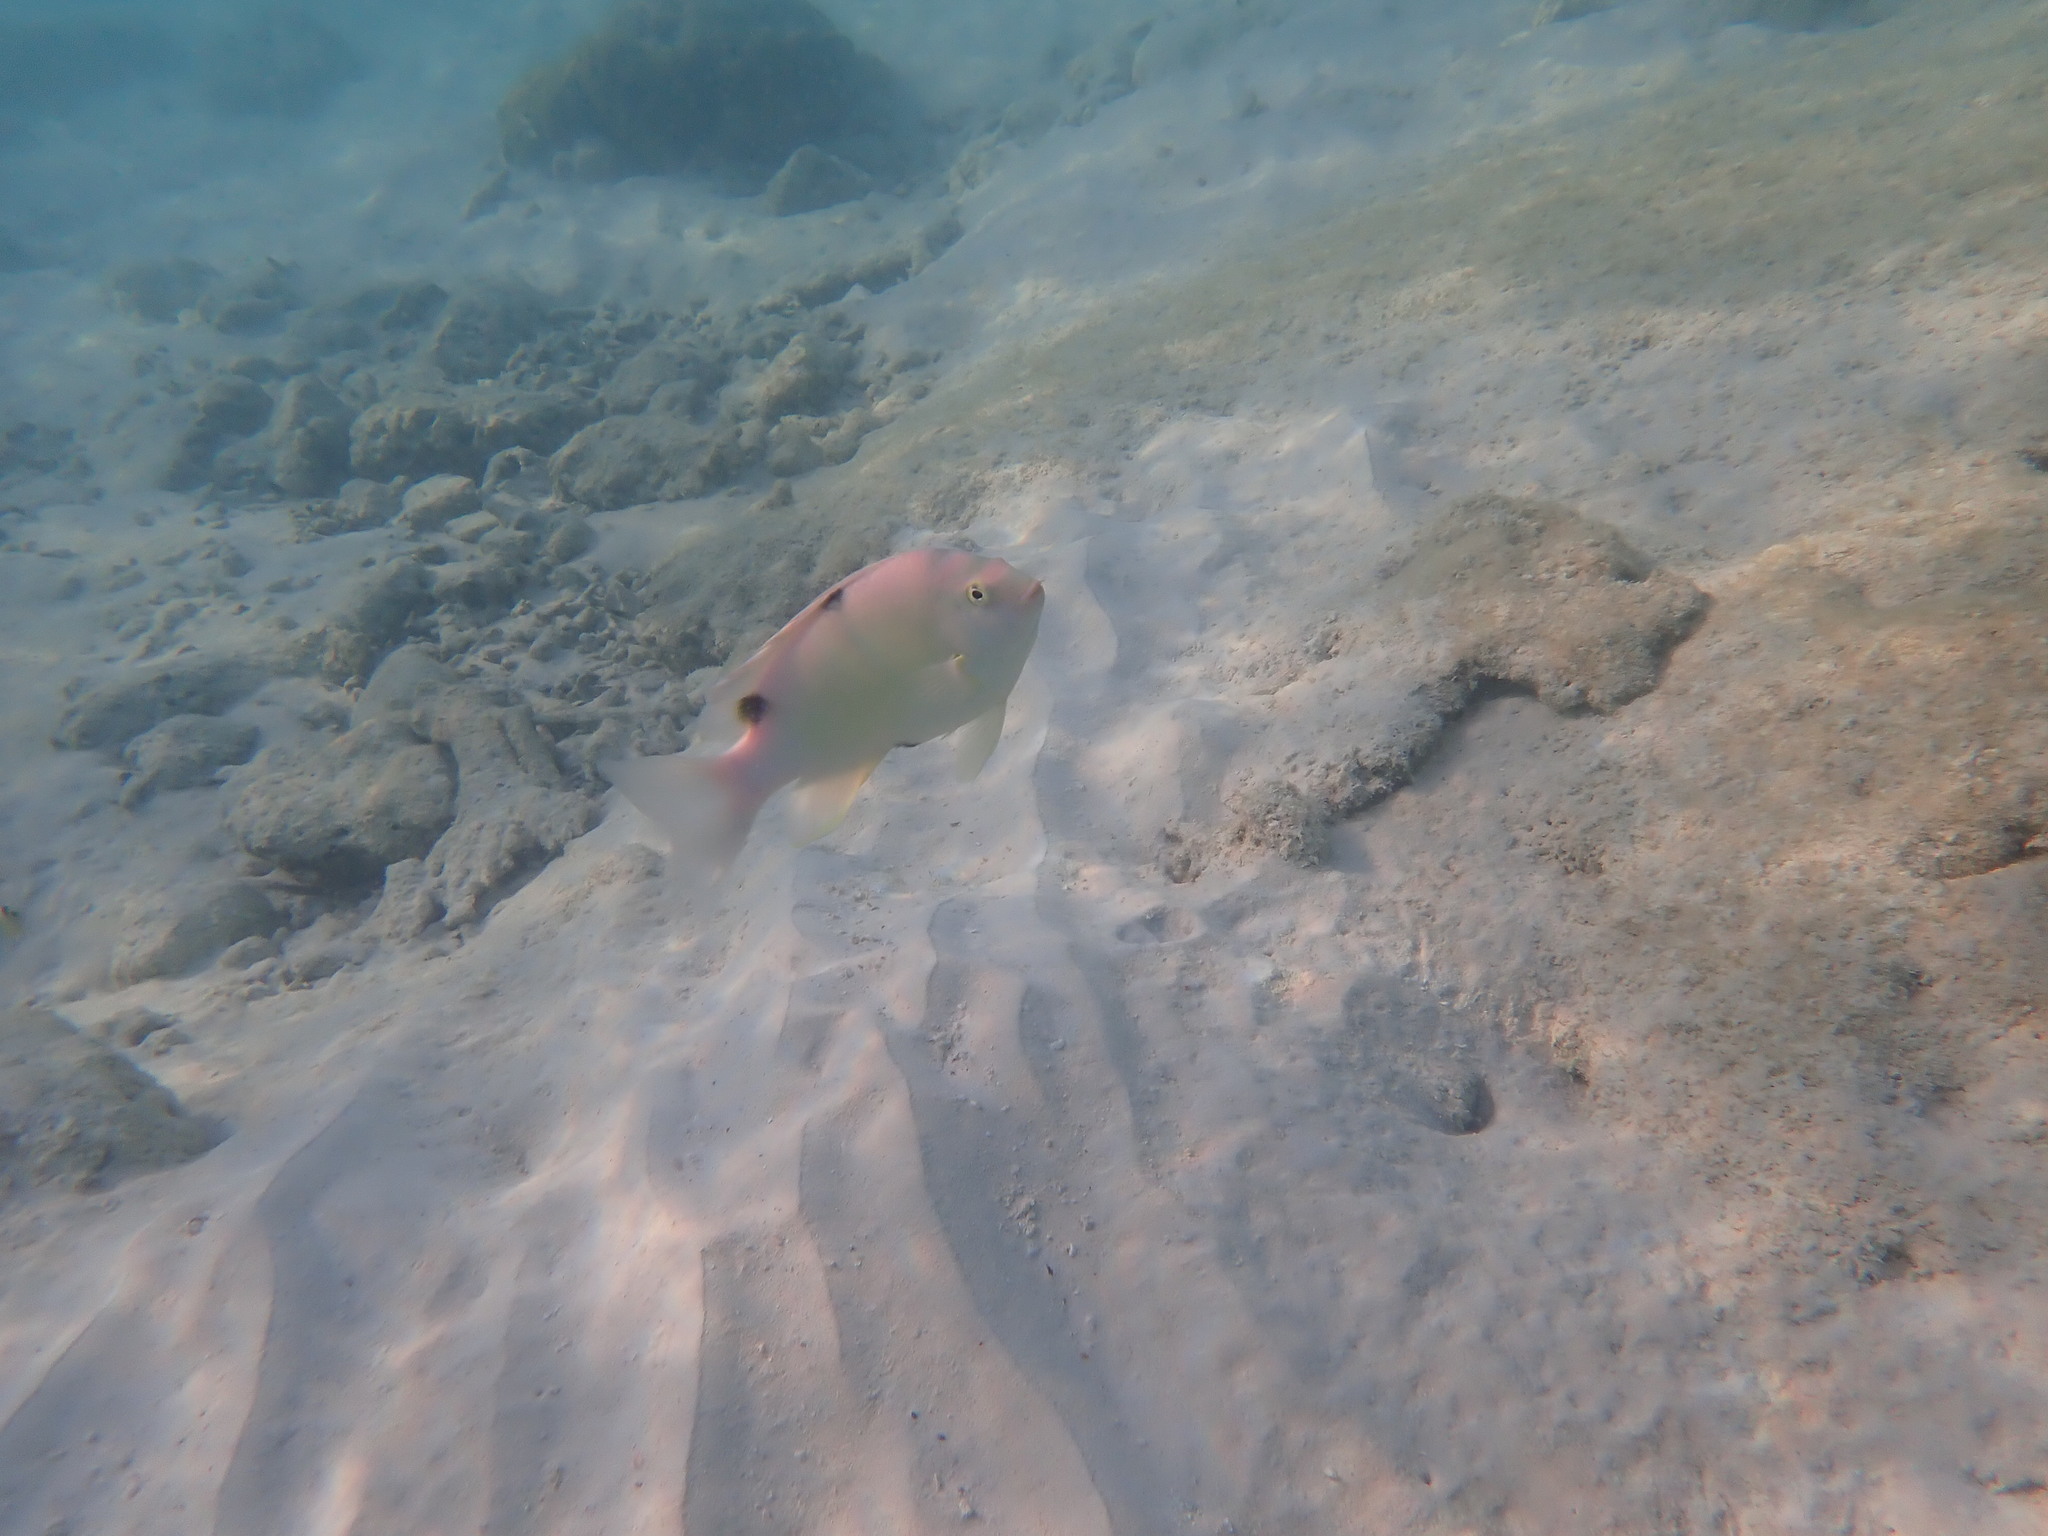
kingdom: Animalia
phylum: Chordata
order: Perciformes
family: Pomacentridae
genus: Dischistodus
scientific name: Dischistodus perspicillatus
